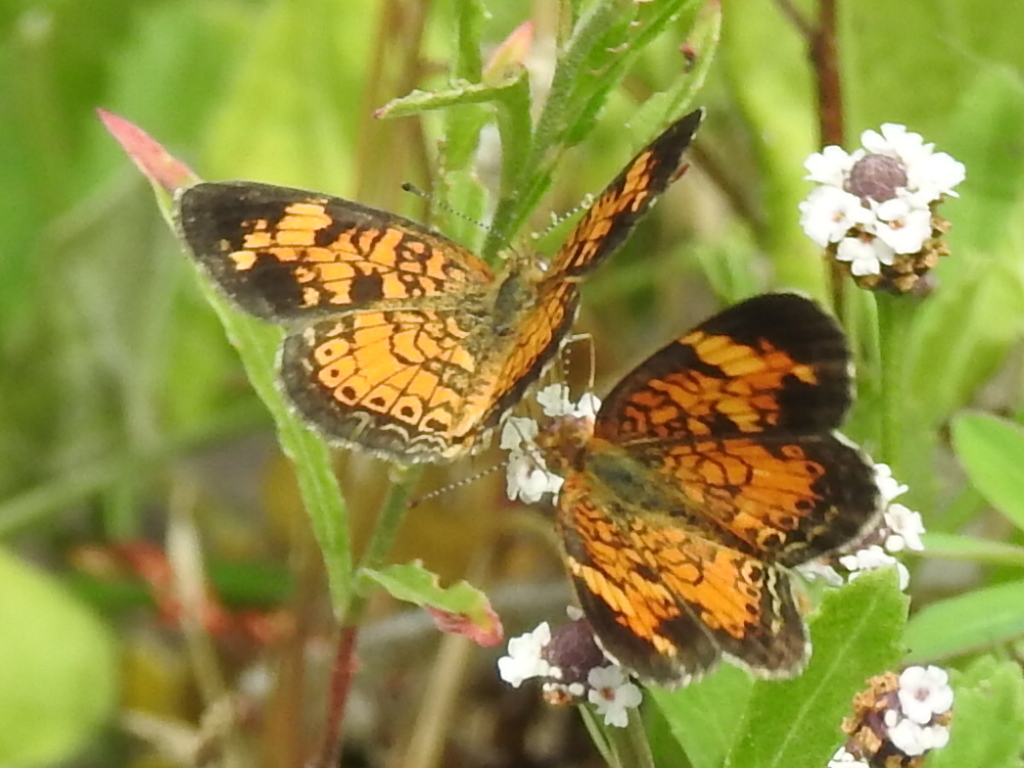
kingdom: Animalia
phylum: Arthropoda
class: Insecta
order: Lepidoptera
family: Nymphalidae
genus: Phyciodes
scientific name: Phyciodes tharos
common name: Pearl crescent
